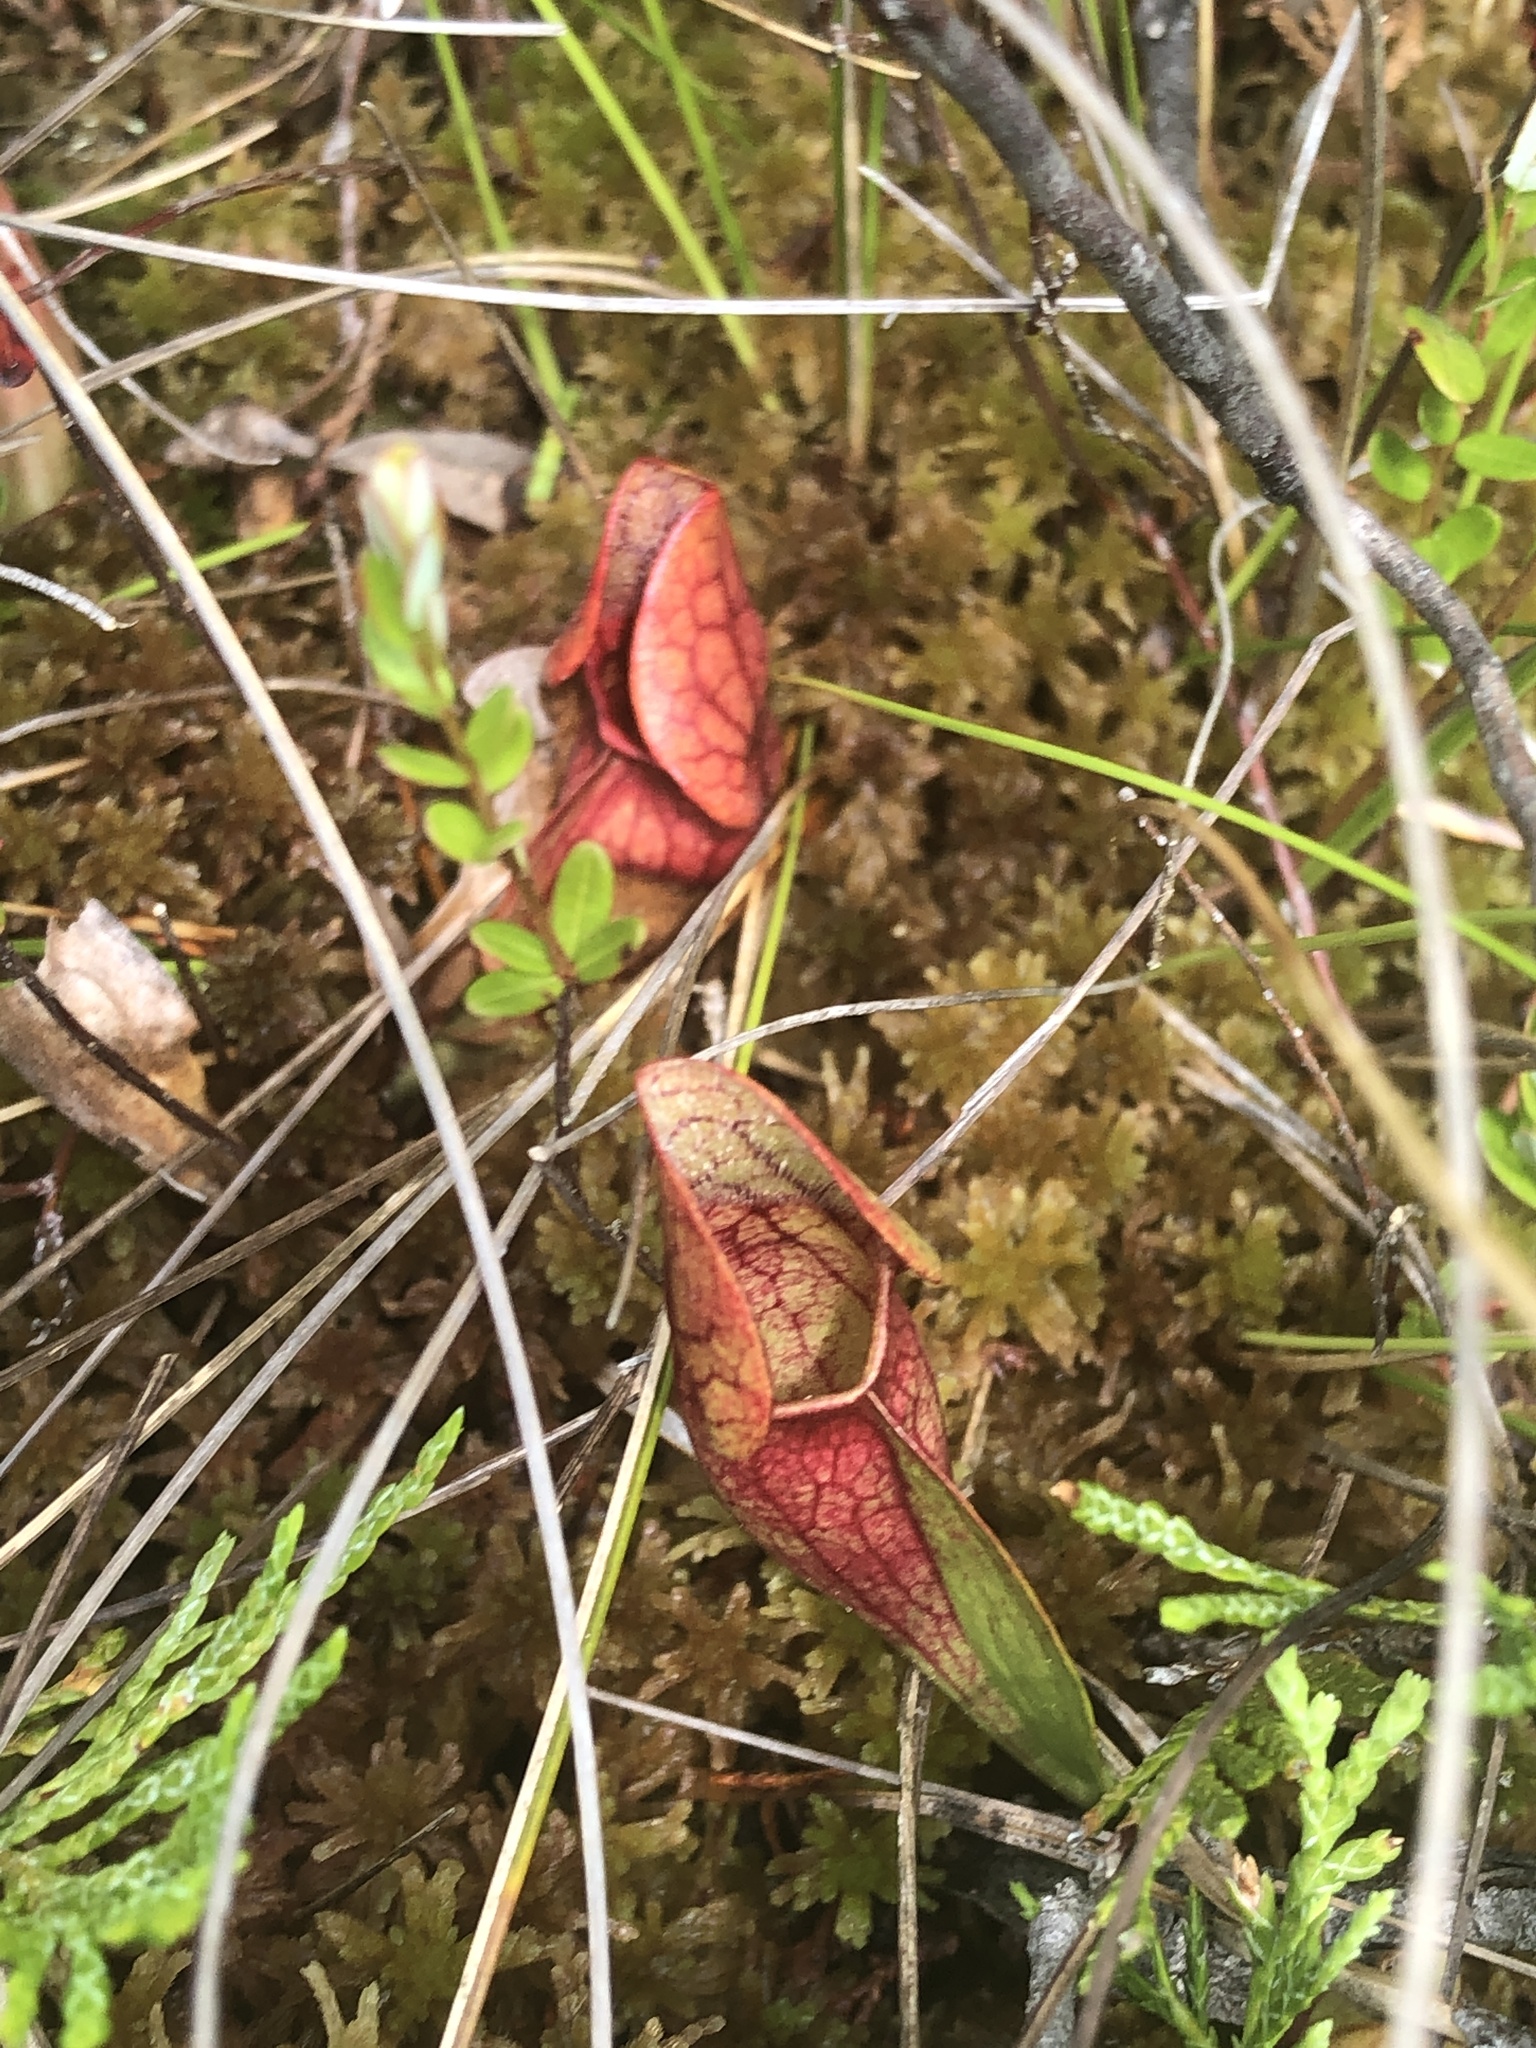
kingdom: Plantae
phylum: Tracheophyta
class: Magnoliopsida
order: Ericales
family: Sarraceniaceae
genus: Sarracenia
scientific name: Sarracenia purpurea
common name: Pitcherplant
